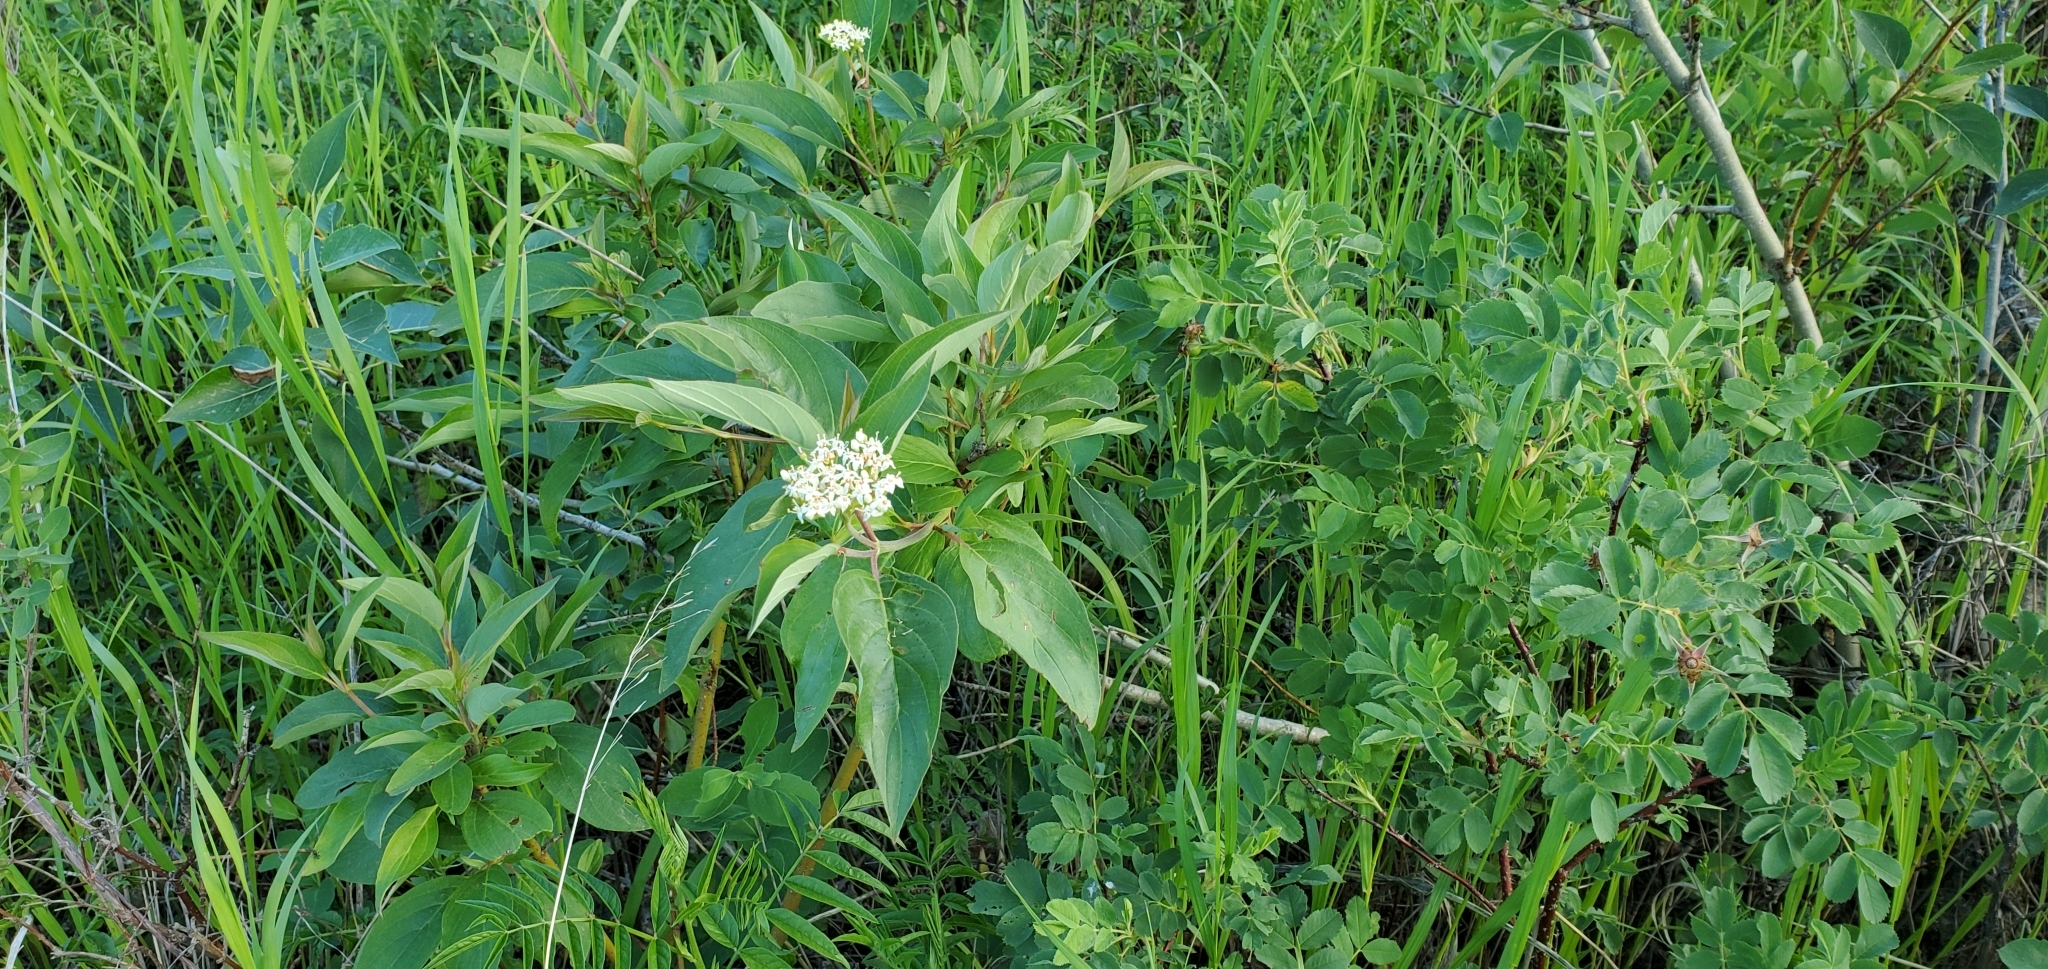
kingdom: Plantae
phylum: Tracheophyta
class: Magnoliopsida
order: Cornales
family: Cornaceae
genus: Cornus
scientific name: Cornus sericea
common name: Red-osier dogwood
